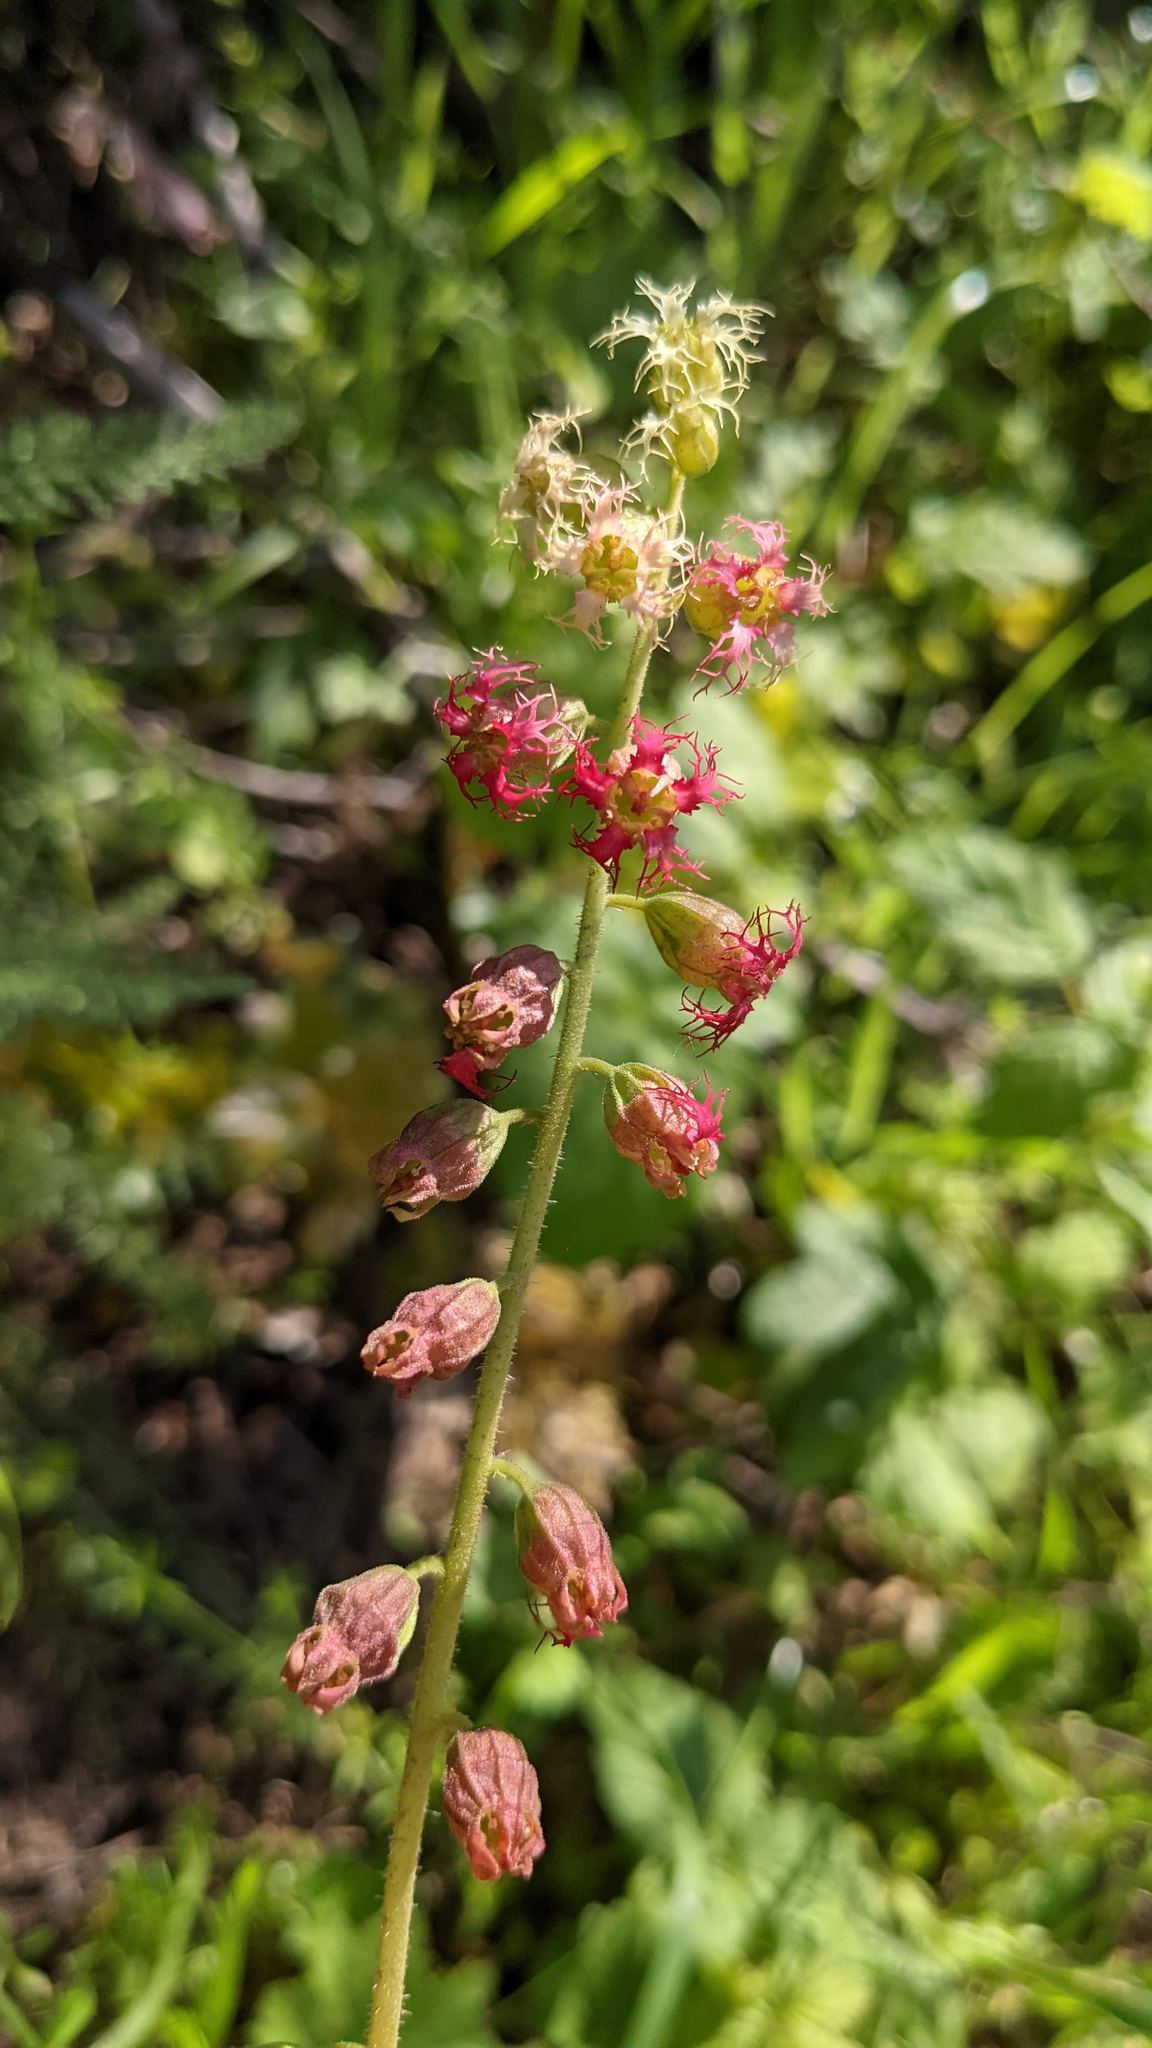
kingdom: Plantae
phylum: Tracheophyta
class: Magnoliopsida
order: Saxifragales
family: Saxifragaceae
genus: Tellima
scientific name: Tellima grandiflora
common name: Fringecups
